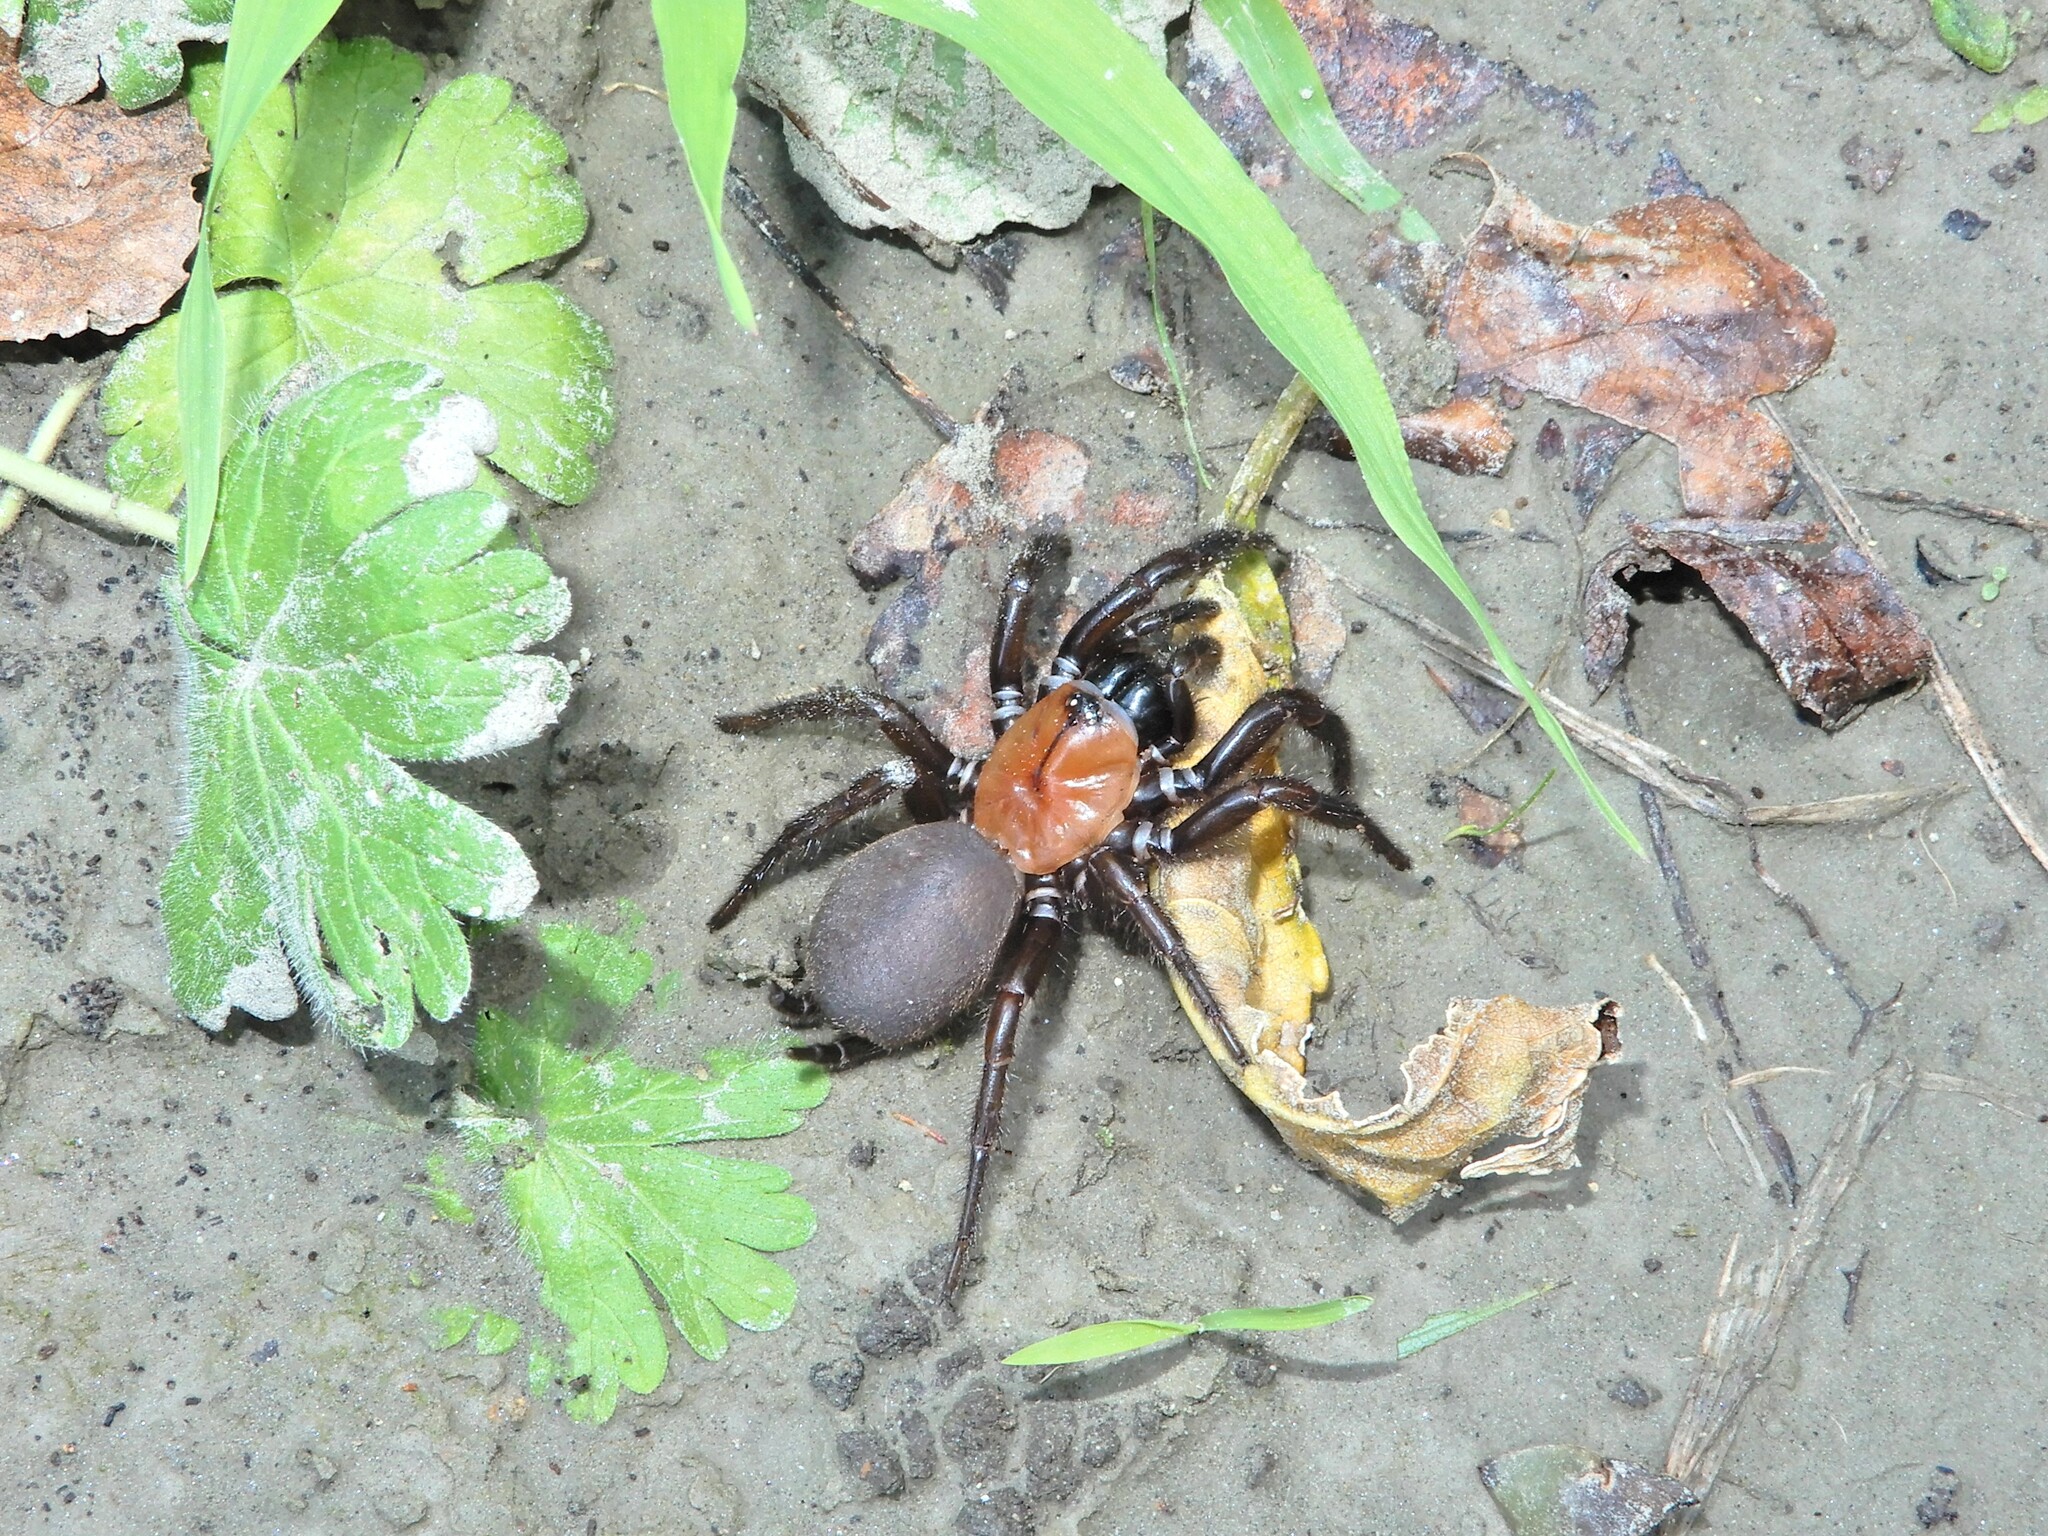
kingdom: Animalia
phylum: Arthropoda
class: Arachnida
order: Araneae
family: Porrhothelidae
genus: Porrhothele
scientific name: Porrhothele antipodiana
